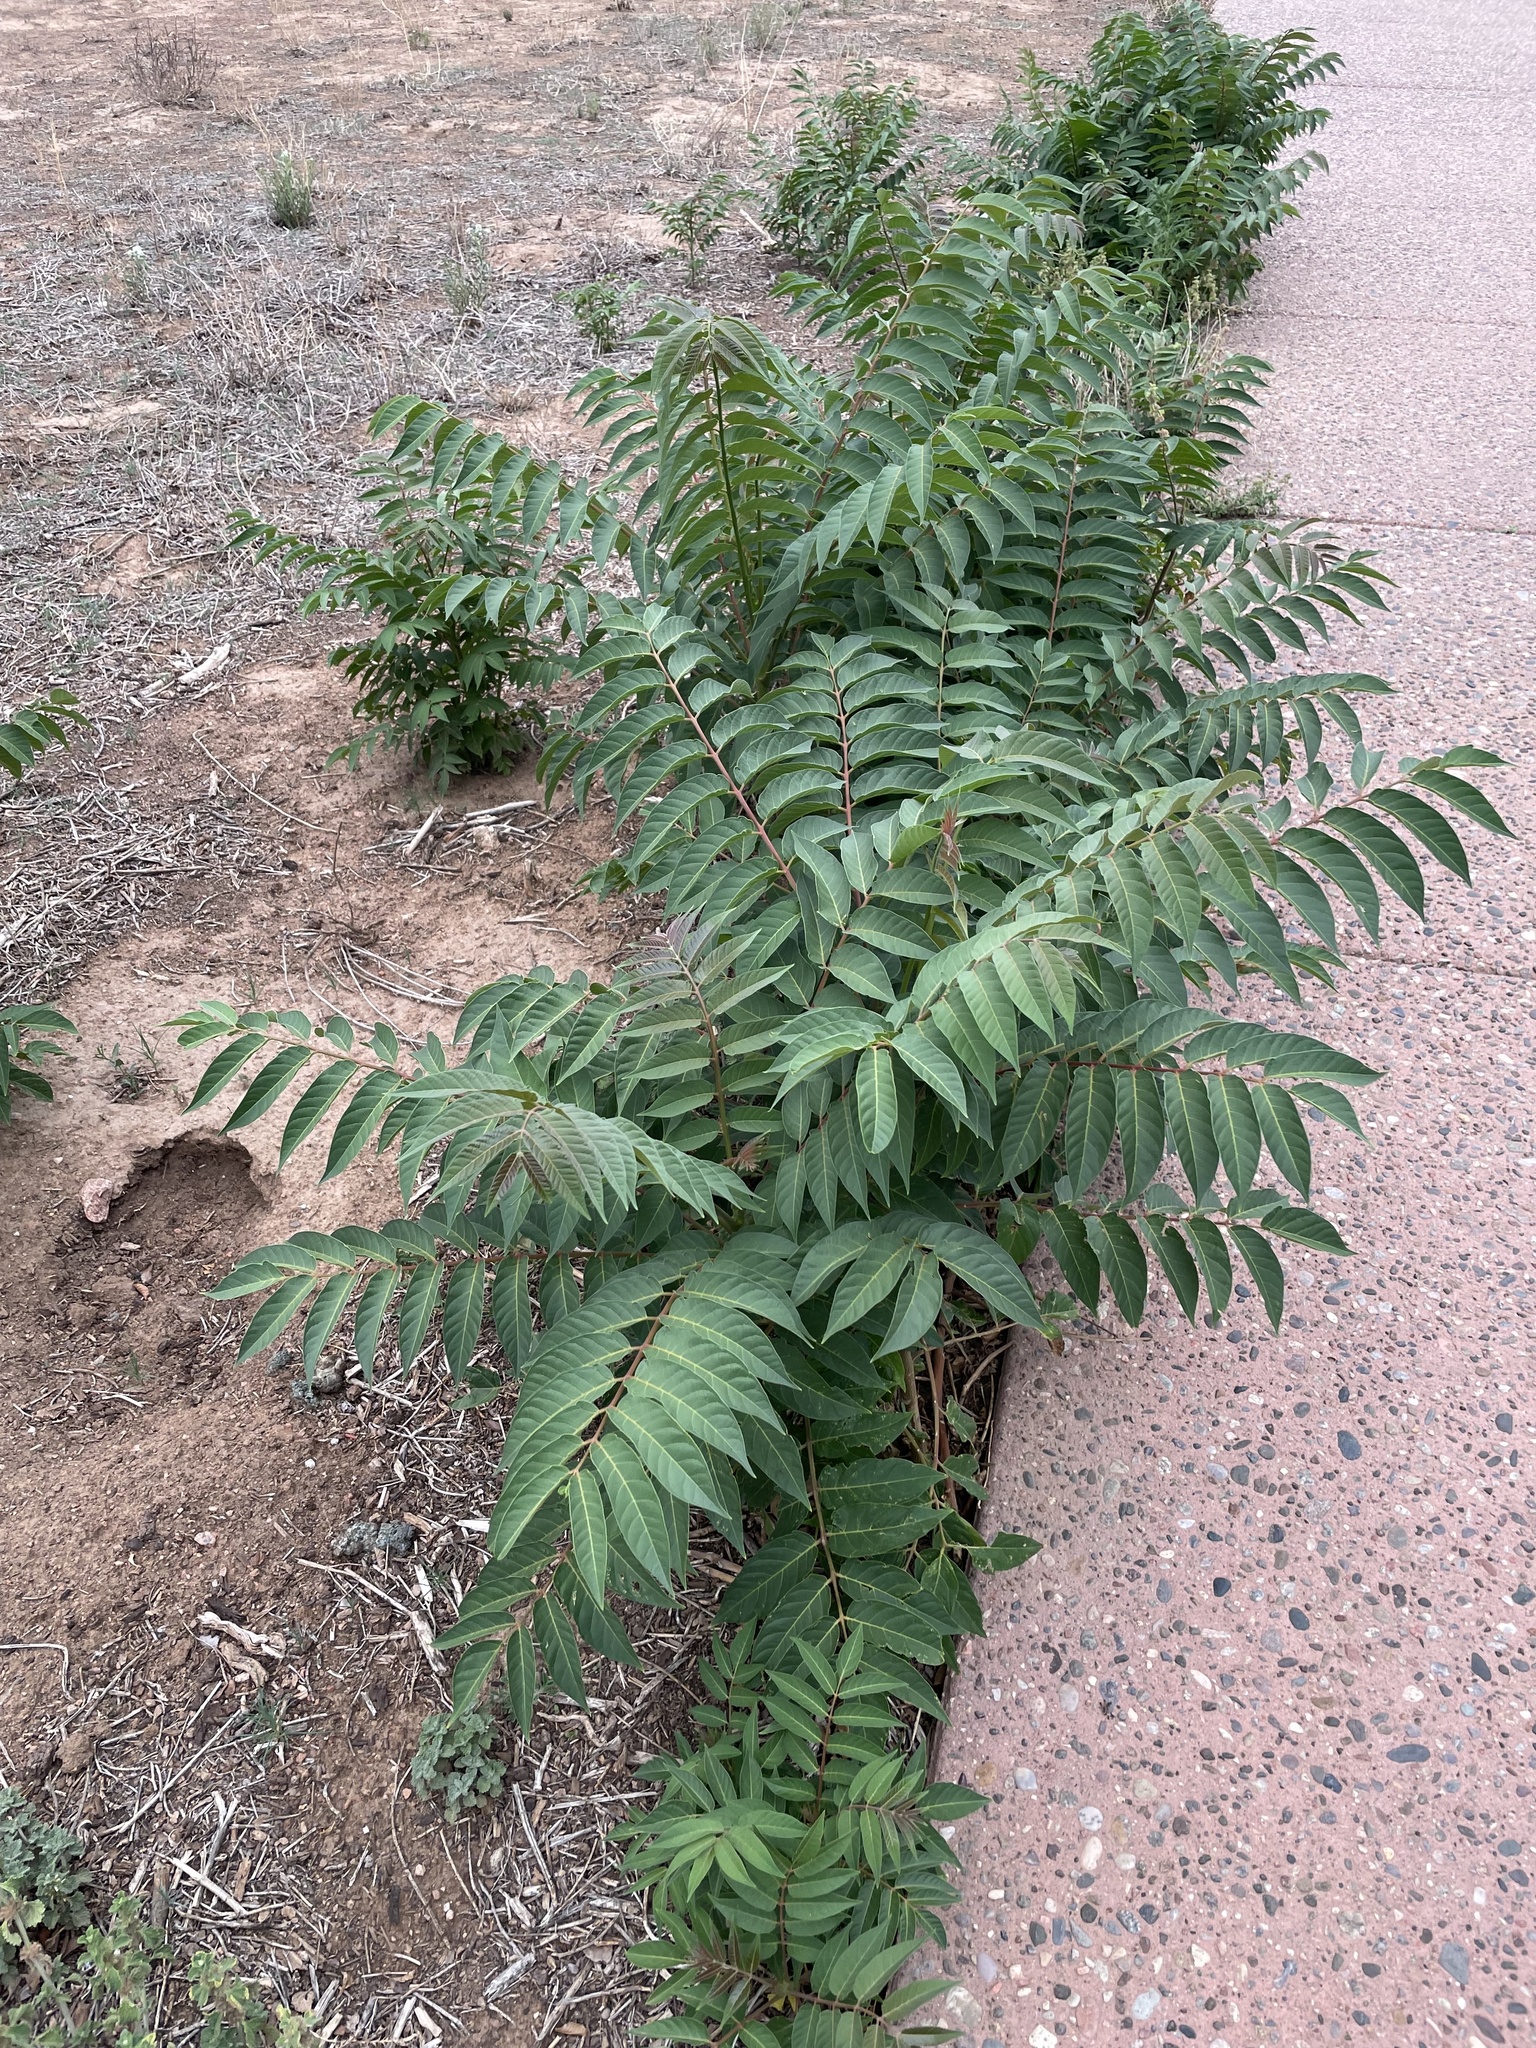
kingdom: Plantae
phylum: Tracheophyta
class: Magnoliopsida
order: Sapindales
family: Simaroubaceae
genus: Ailanthus
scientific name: Ailanthus altissima
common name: Tree-of-heaven
